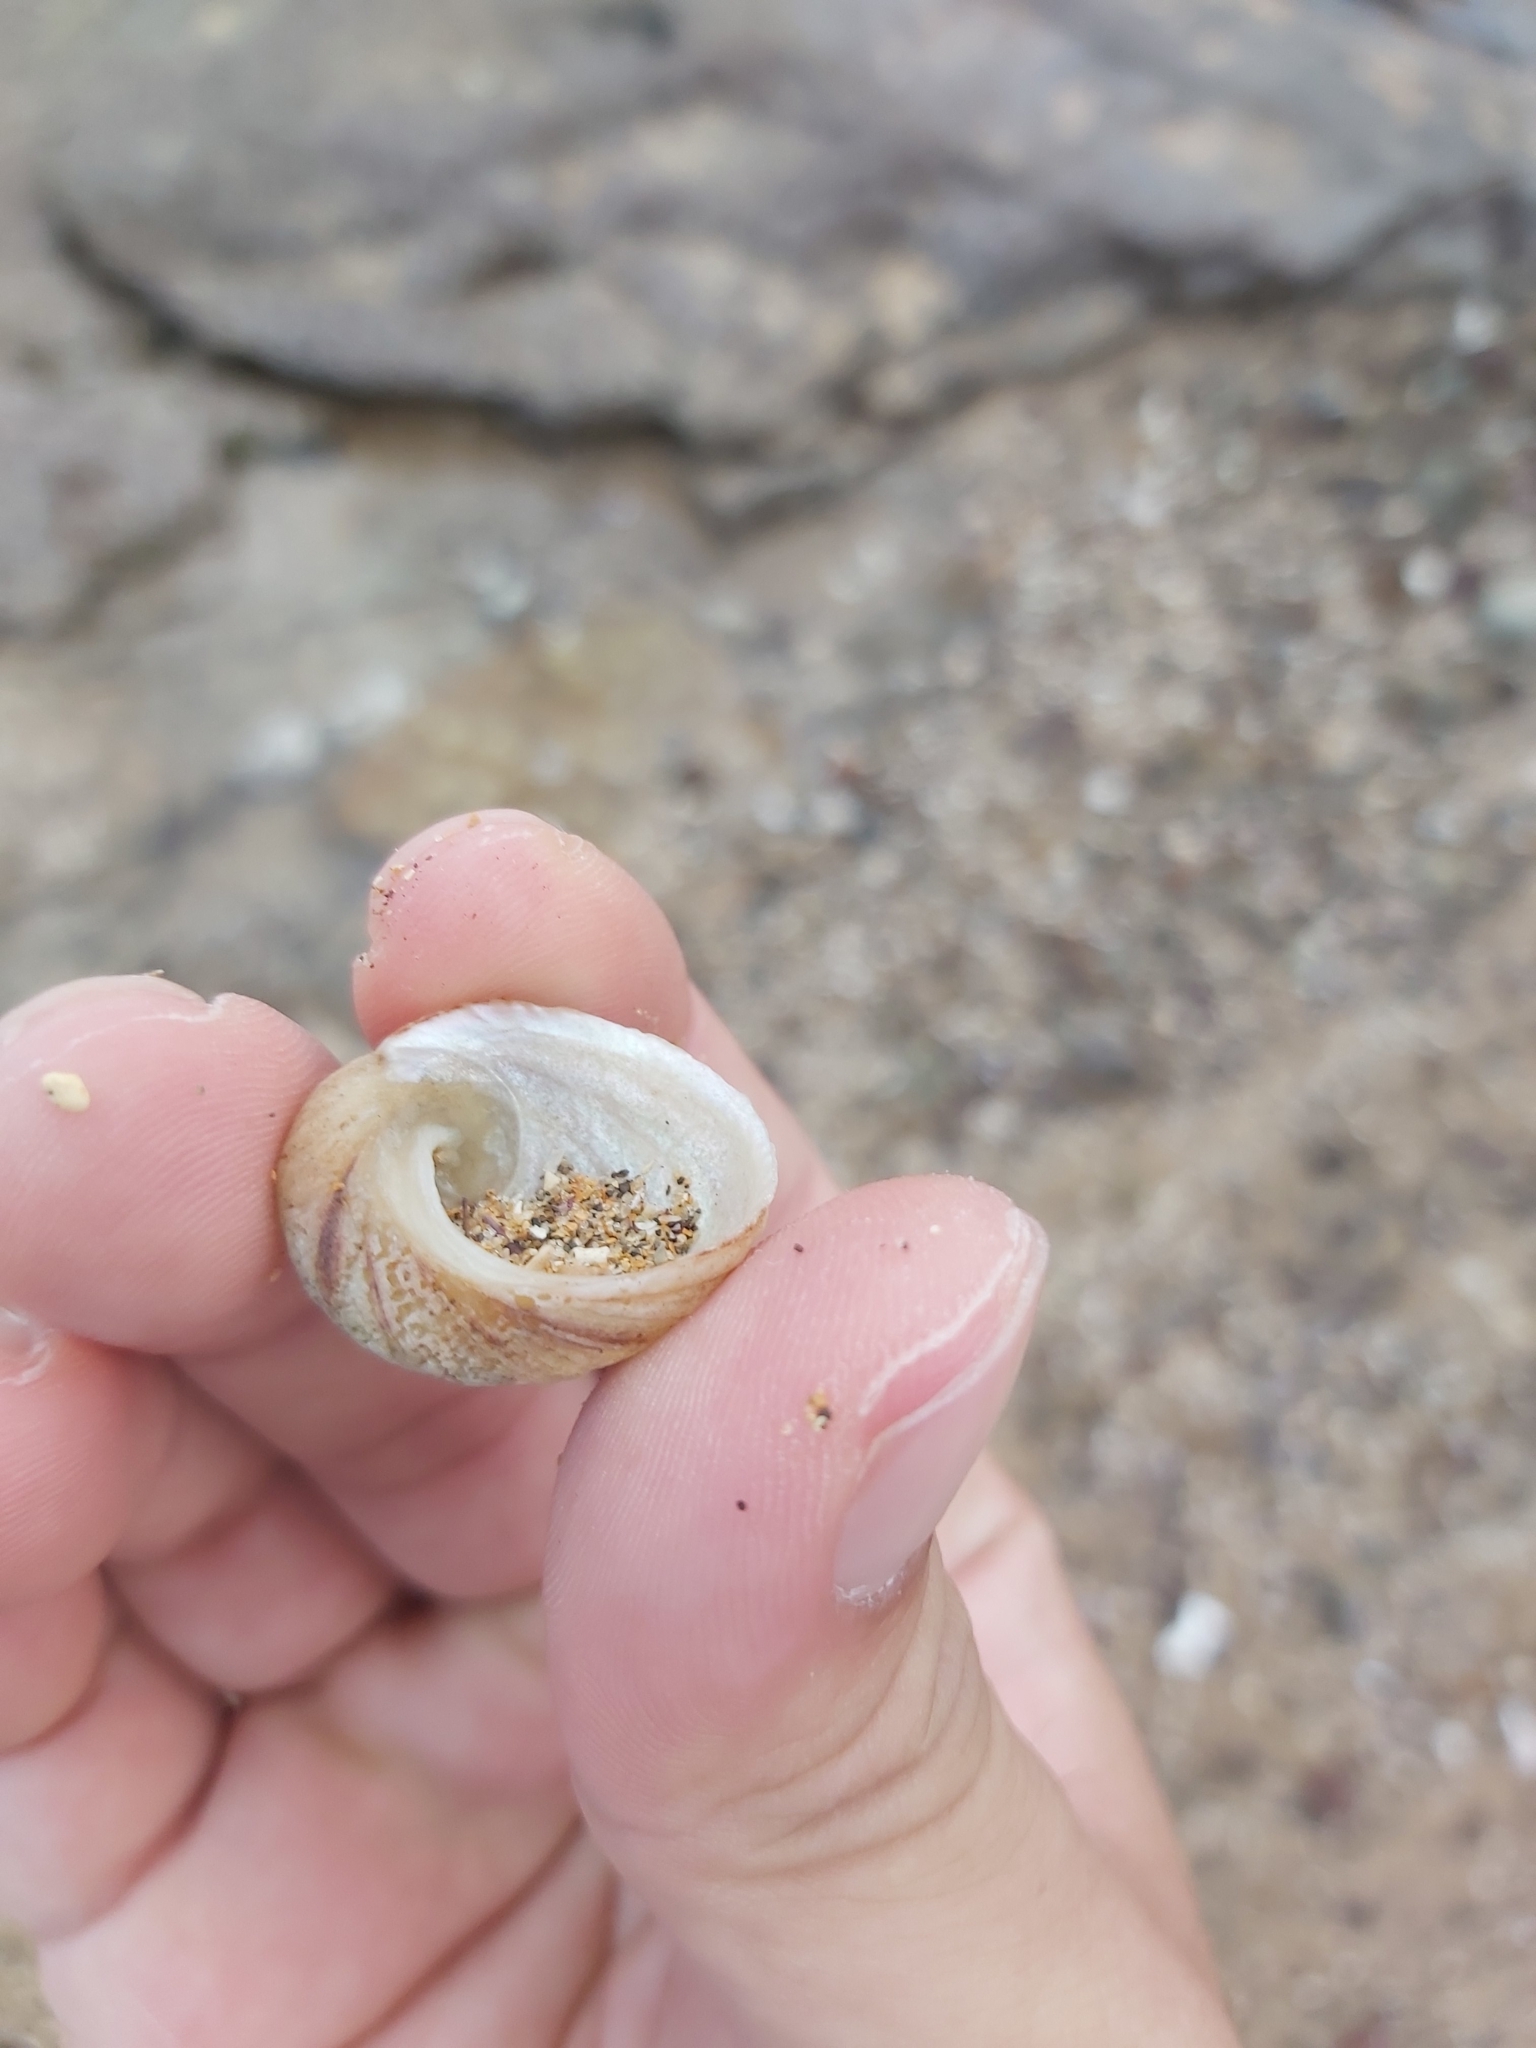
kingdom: Animalia
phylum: Mollusca
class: Gastropoda
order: Seguenziida
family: Chilodontaidae
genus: Granata
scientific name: Granata imbricata
